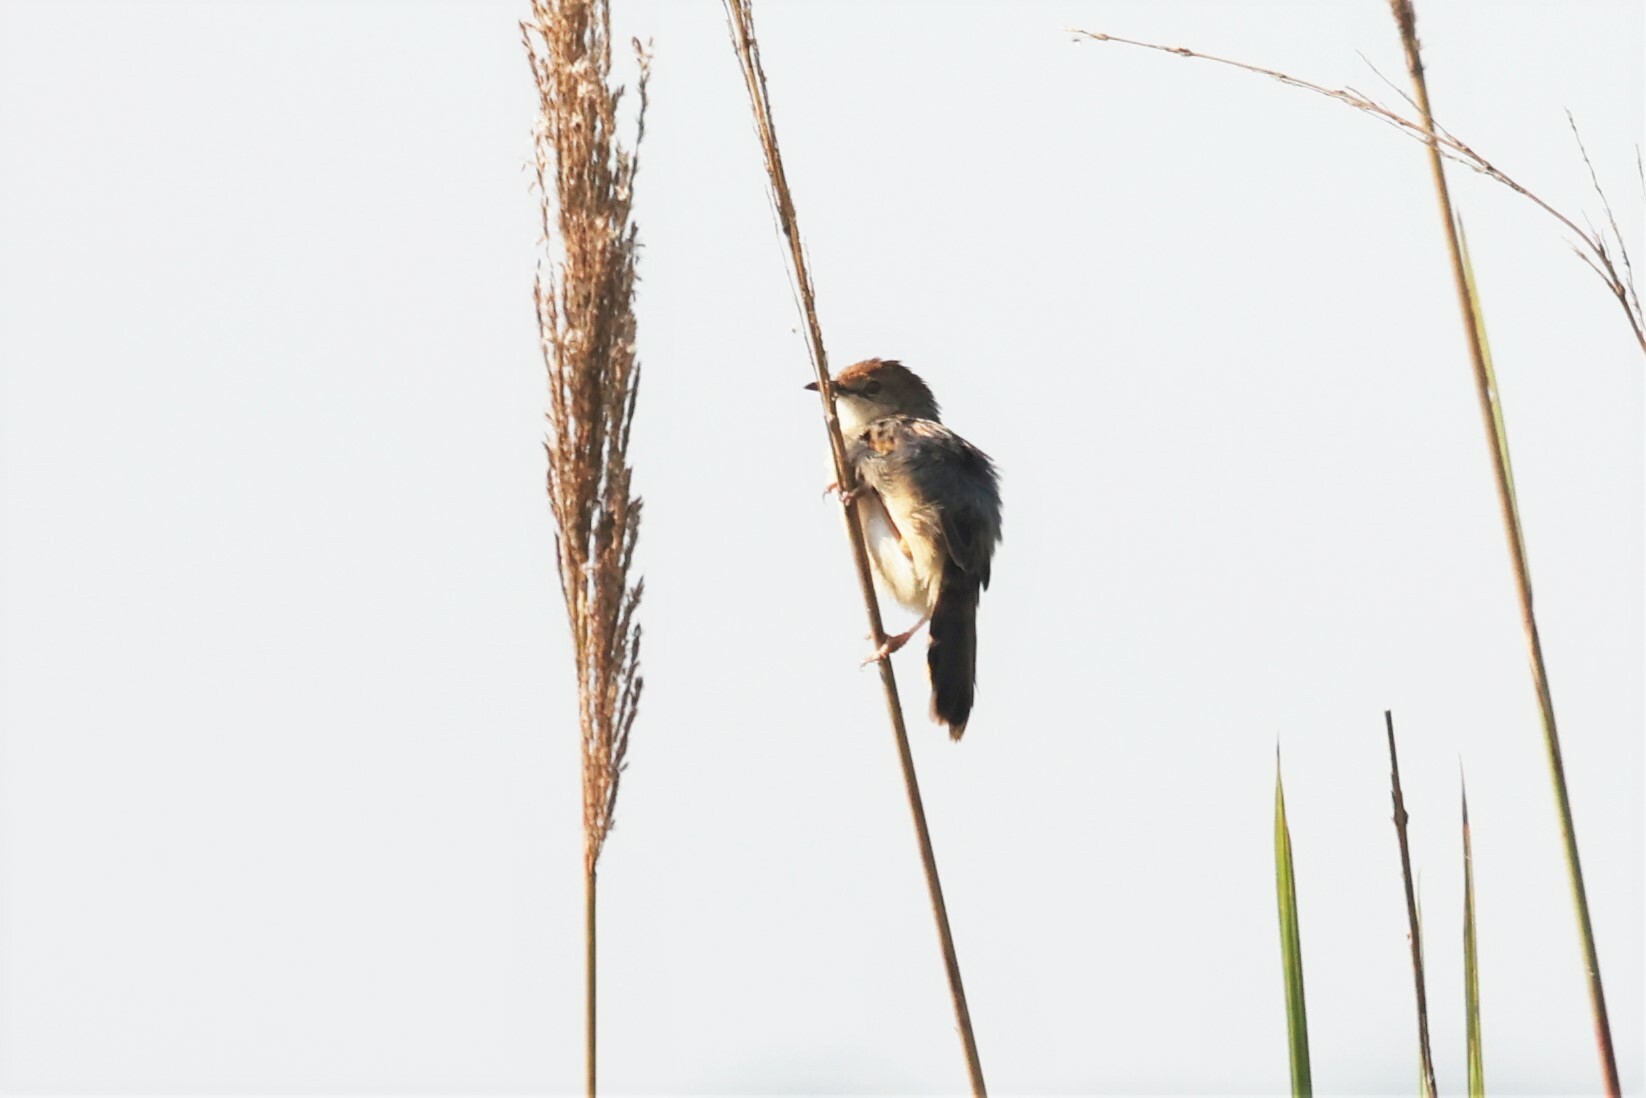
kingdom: Animalia
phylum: Chordata
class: Aves
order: Passeriformes
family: Cisticolidae
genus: Cisticola
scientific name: Cisticola marginatus
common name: Winding cisticola
